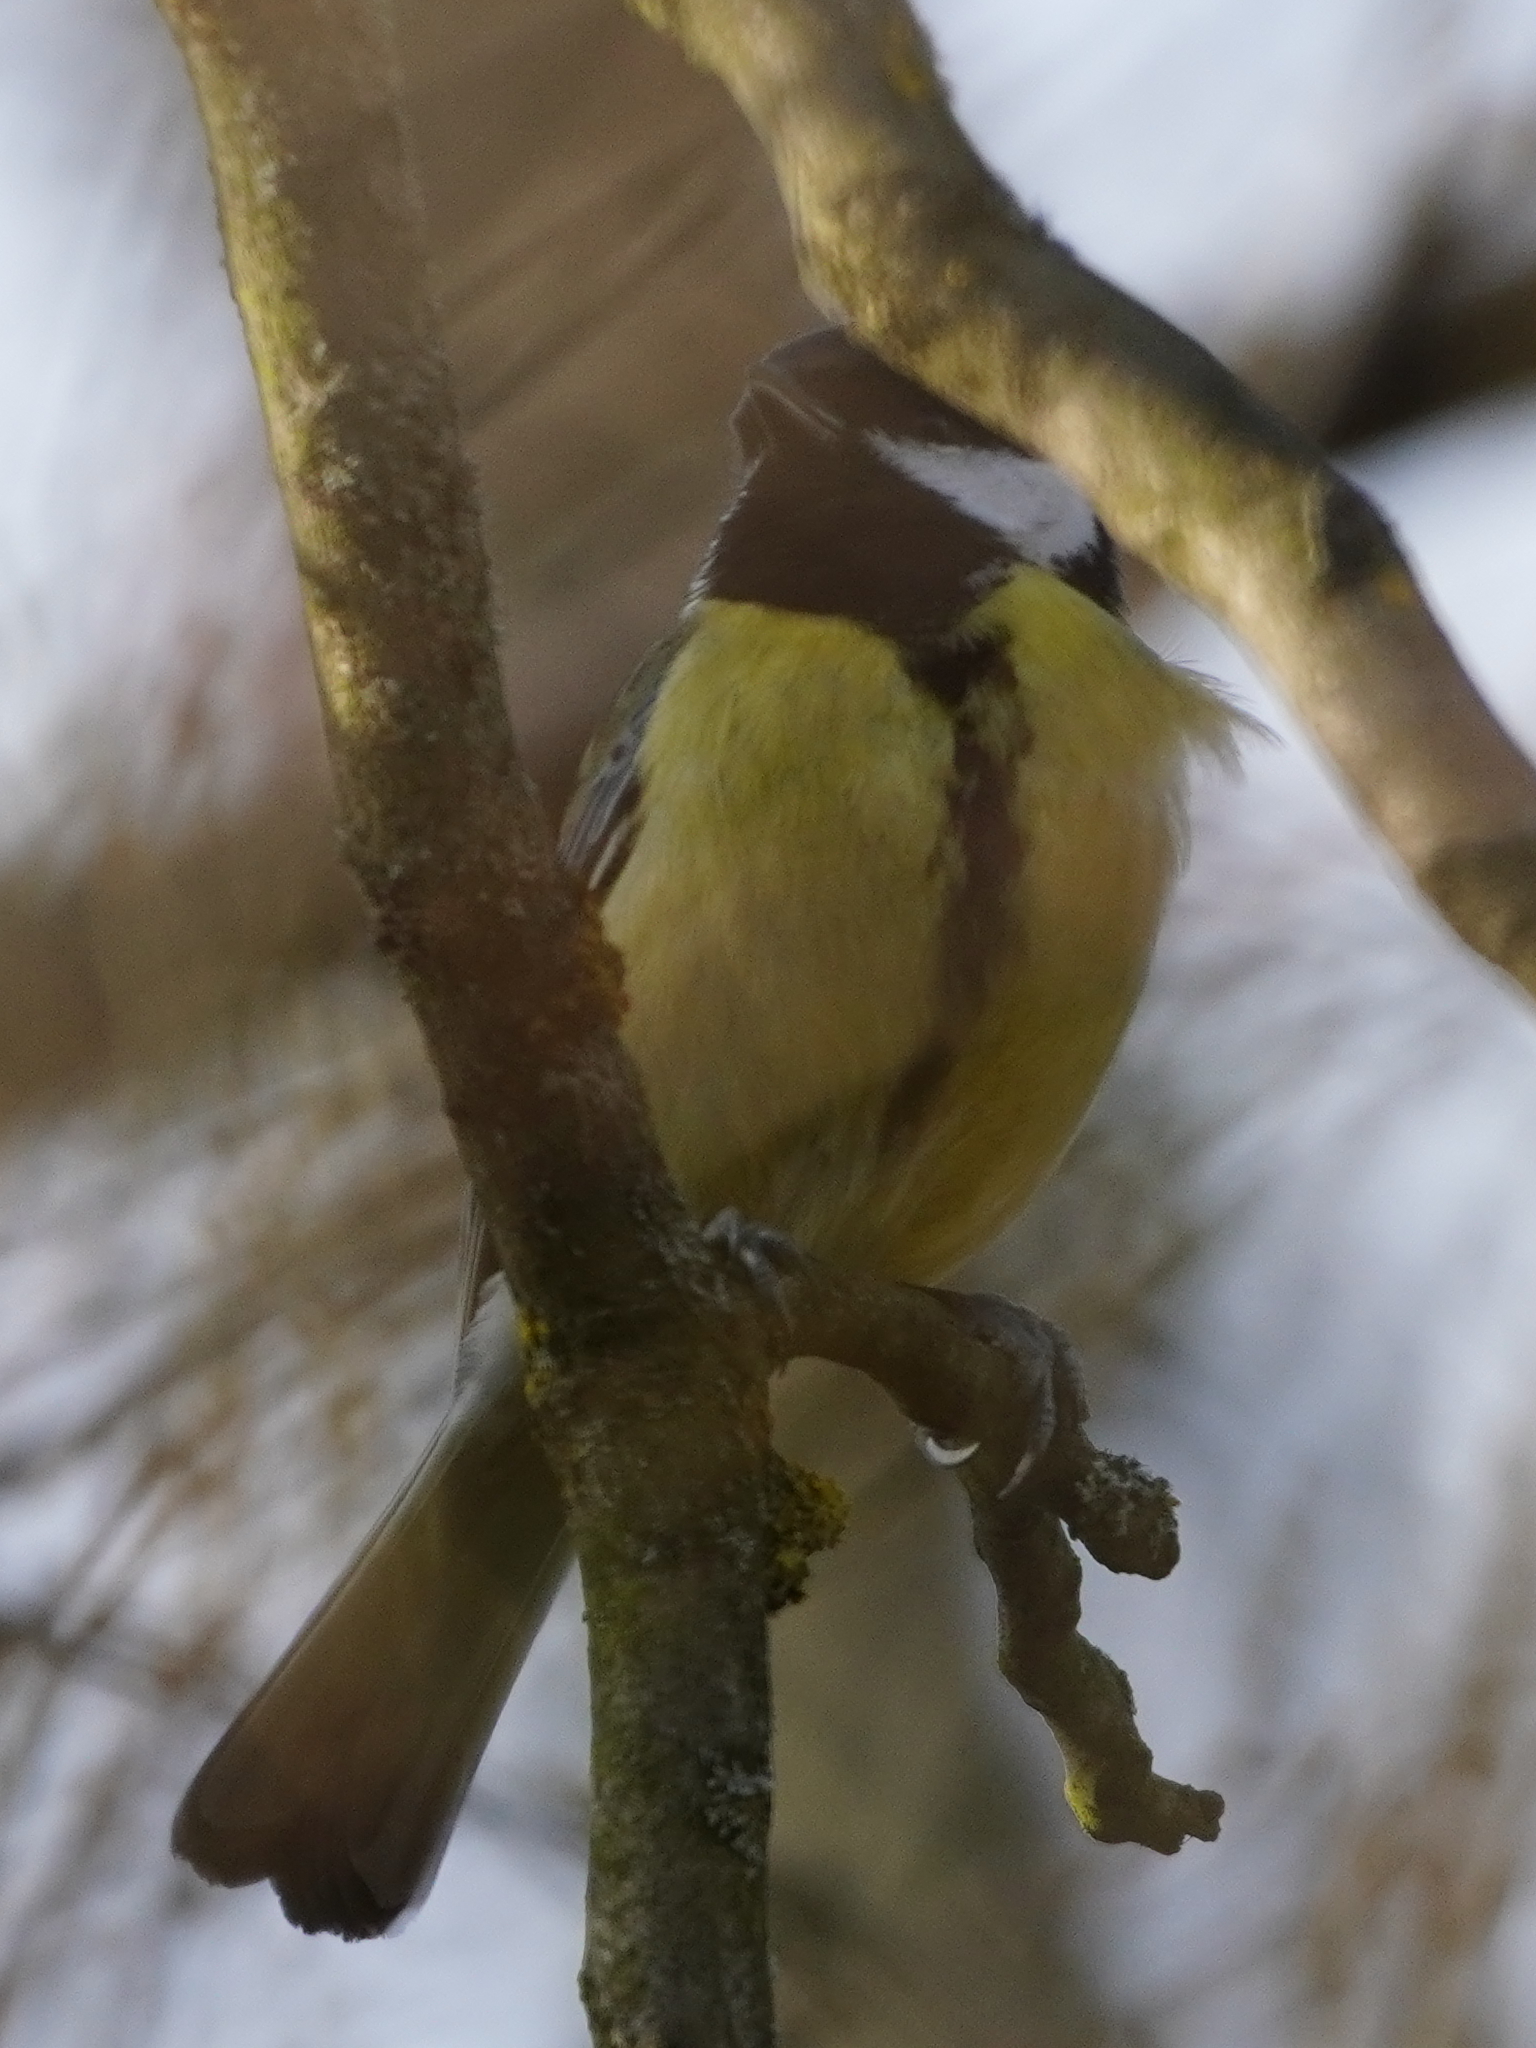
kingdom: Animalia
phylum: Chordata
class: Aves
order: Passeriformes
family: Paridae
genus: Parus
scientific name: Parus major
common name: Great tit
